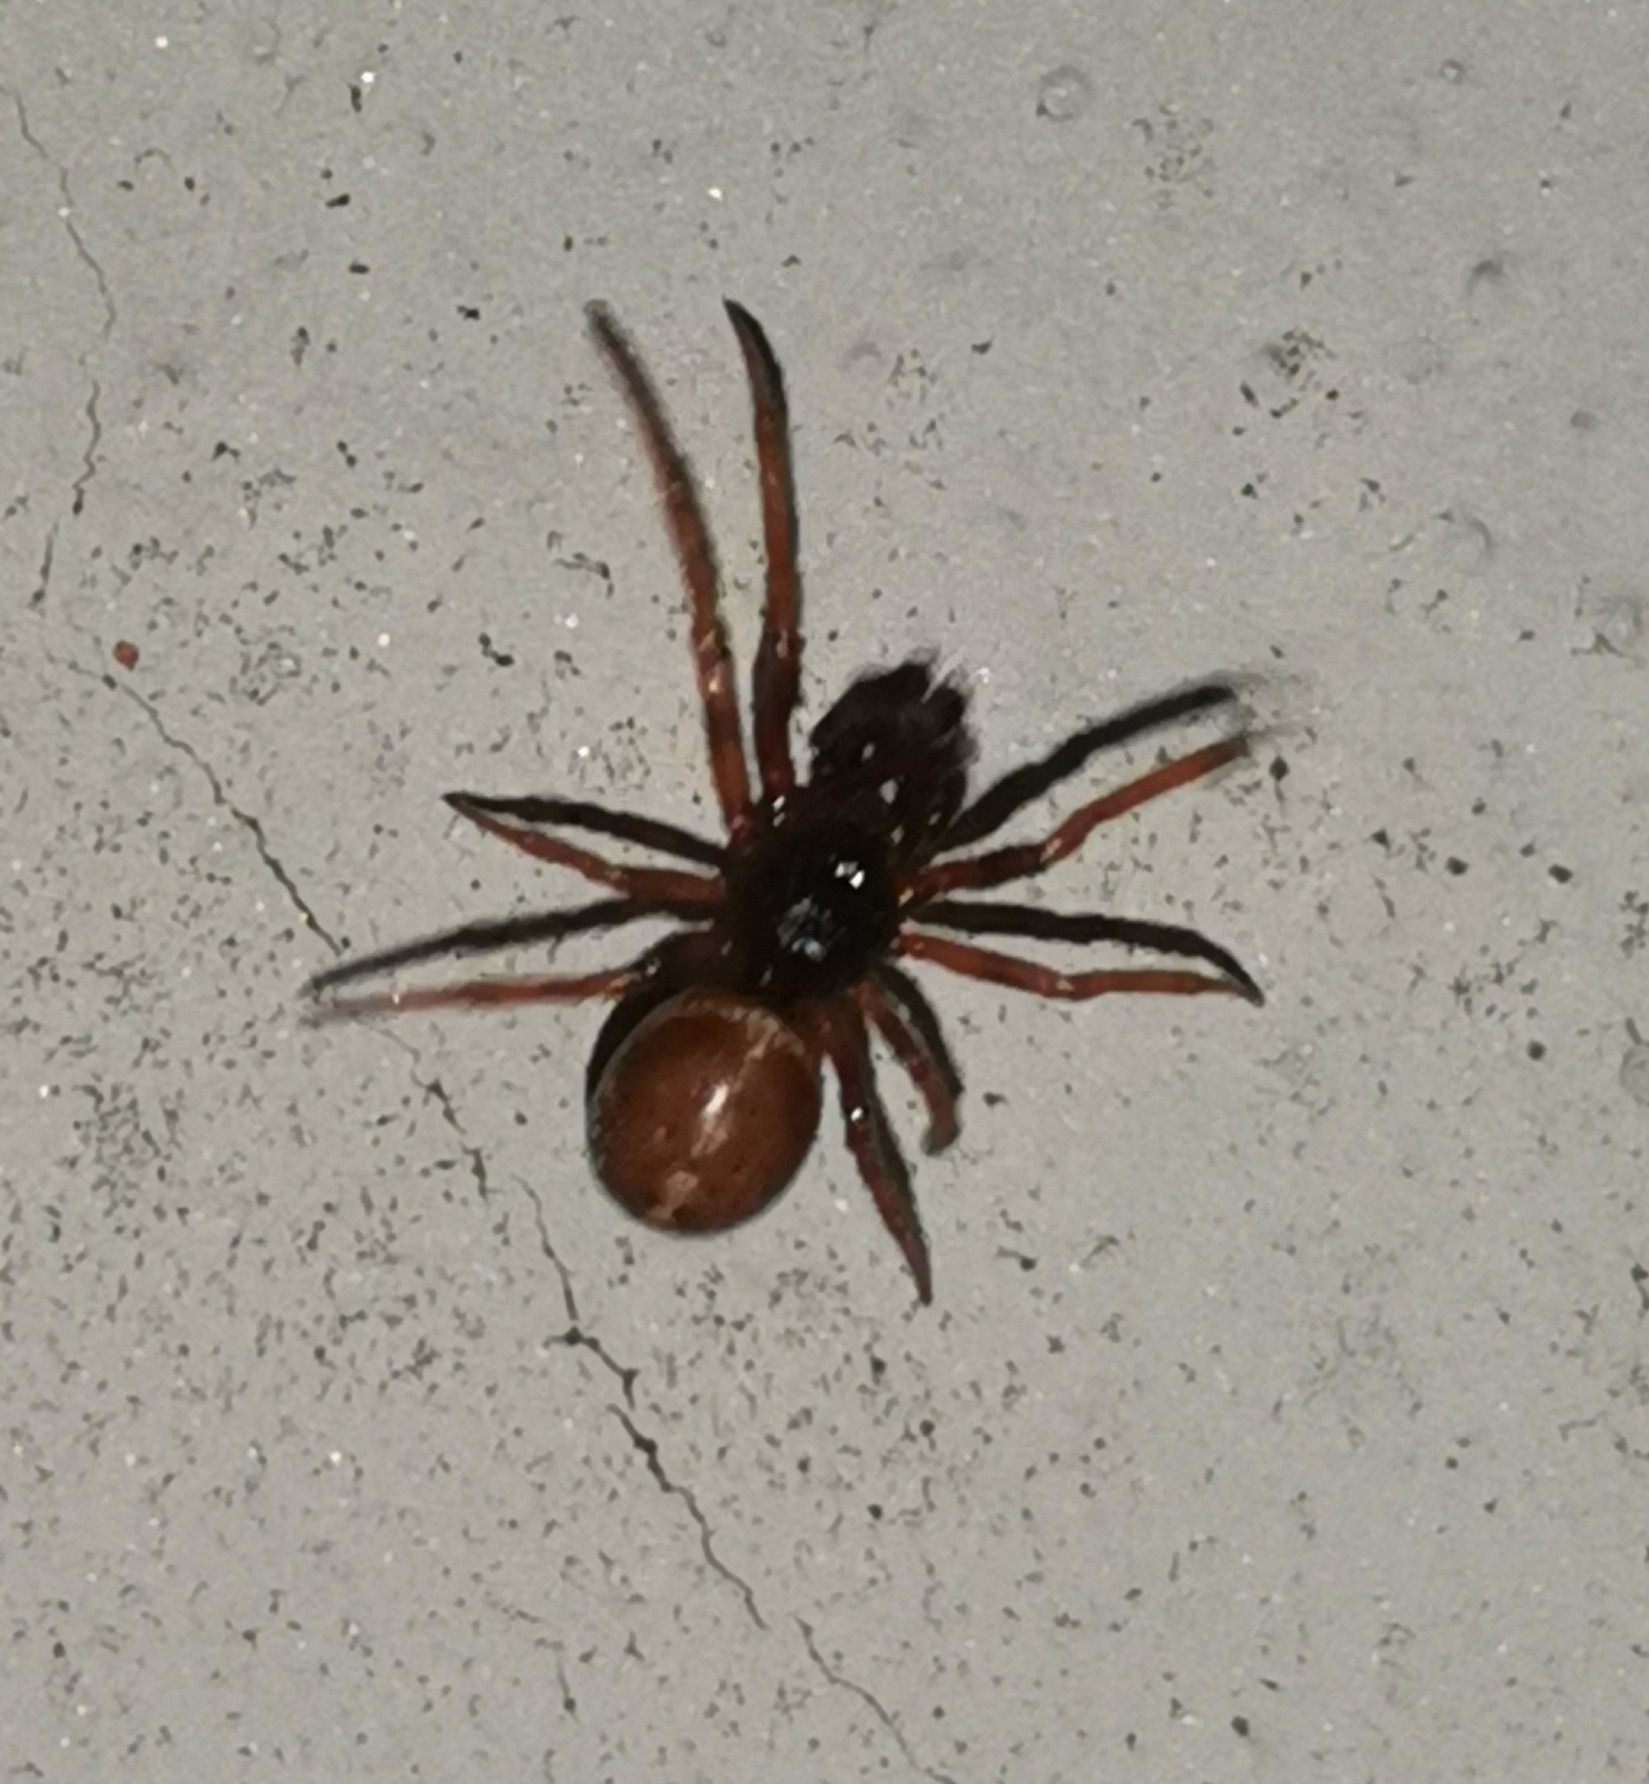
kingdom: Animalia
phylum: Arthropoda
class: Arachnida
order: Araneae
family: Theridiidae
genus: Steatoda
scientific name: Steatoda bipunctata
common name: False widow
